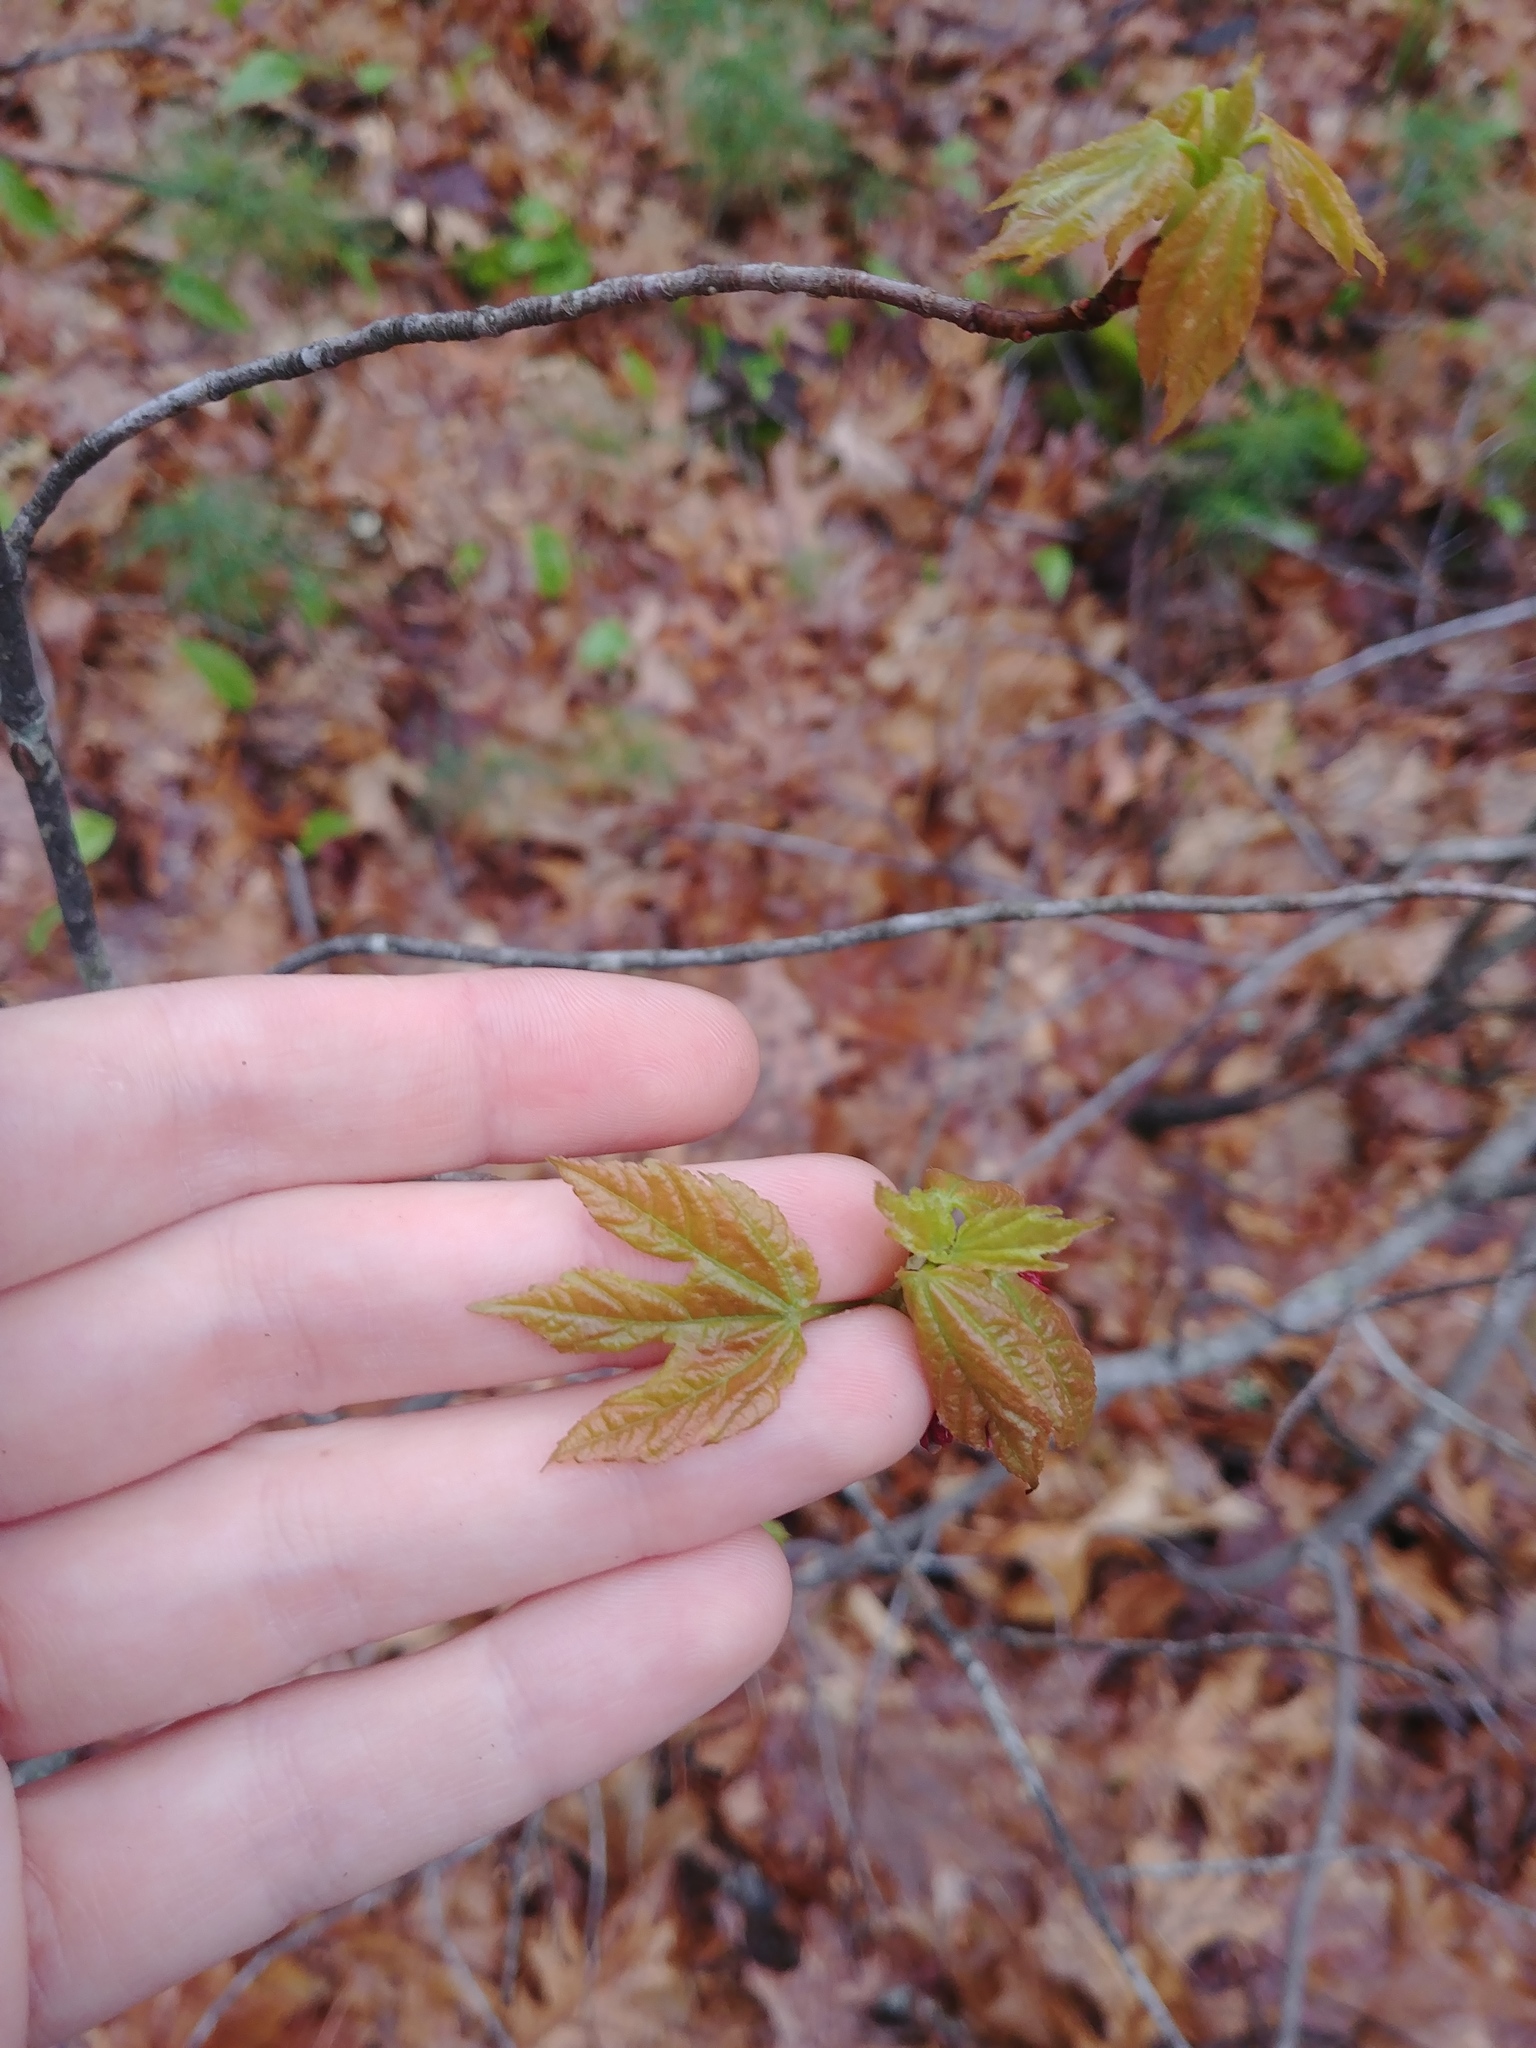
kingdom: Plantae
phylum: Tracheophyta
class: Magnoliopsida
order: Sapindales
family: Sapindaceae
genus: Acer
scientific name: Acer
